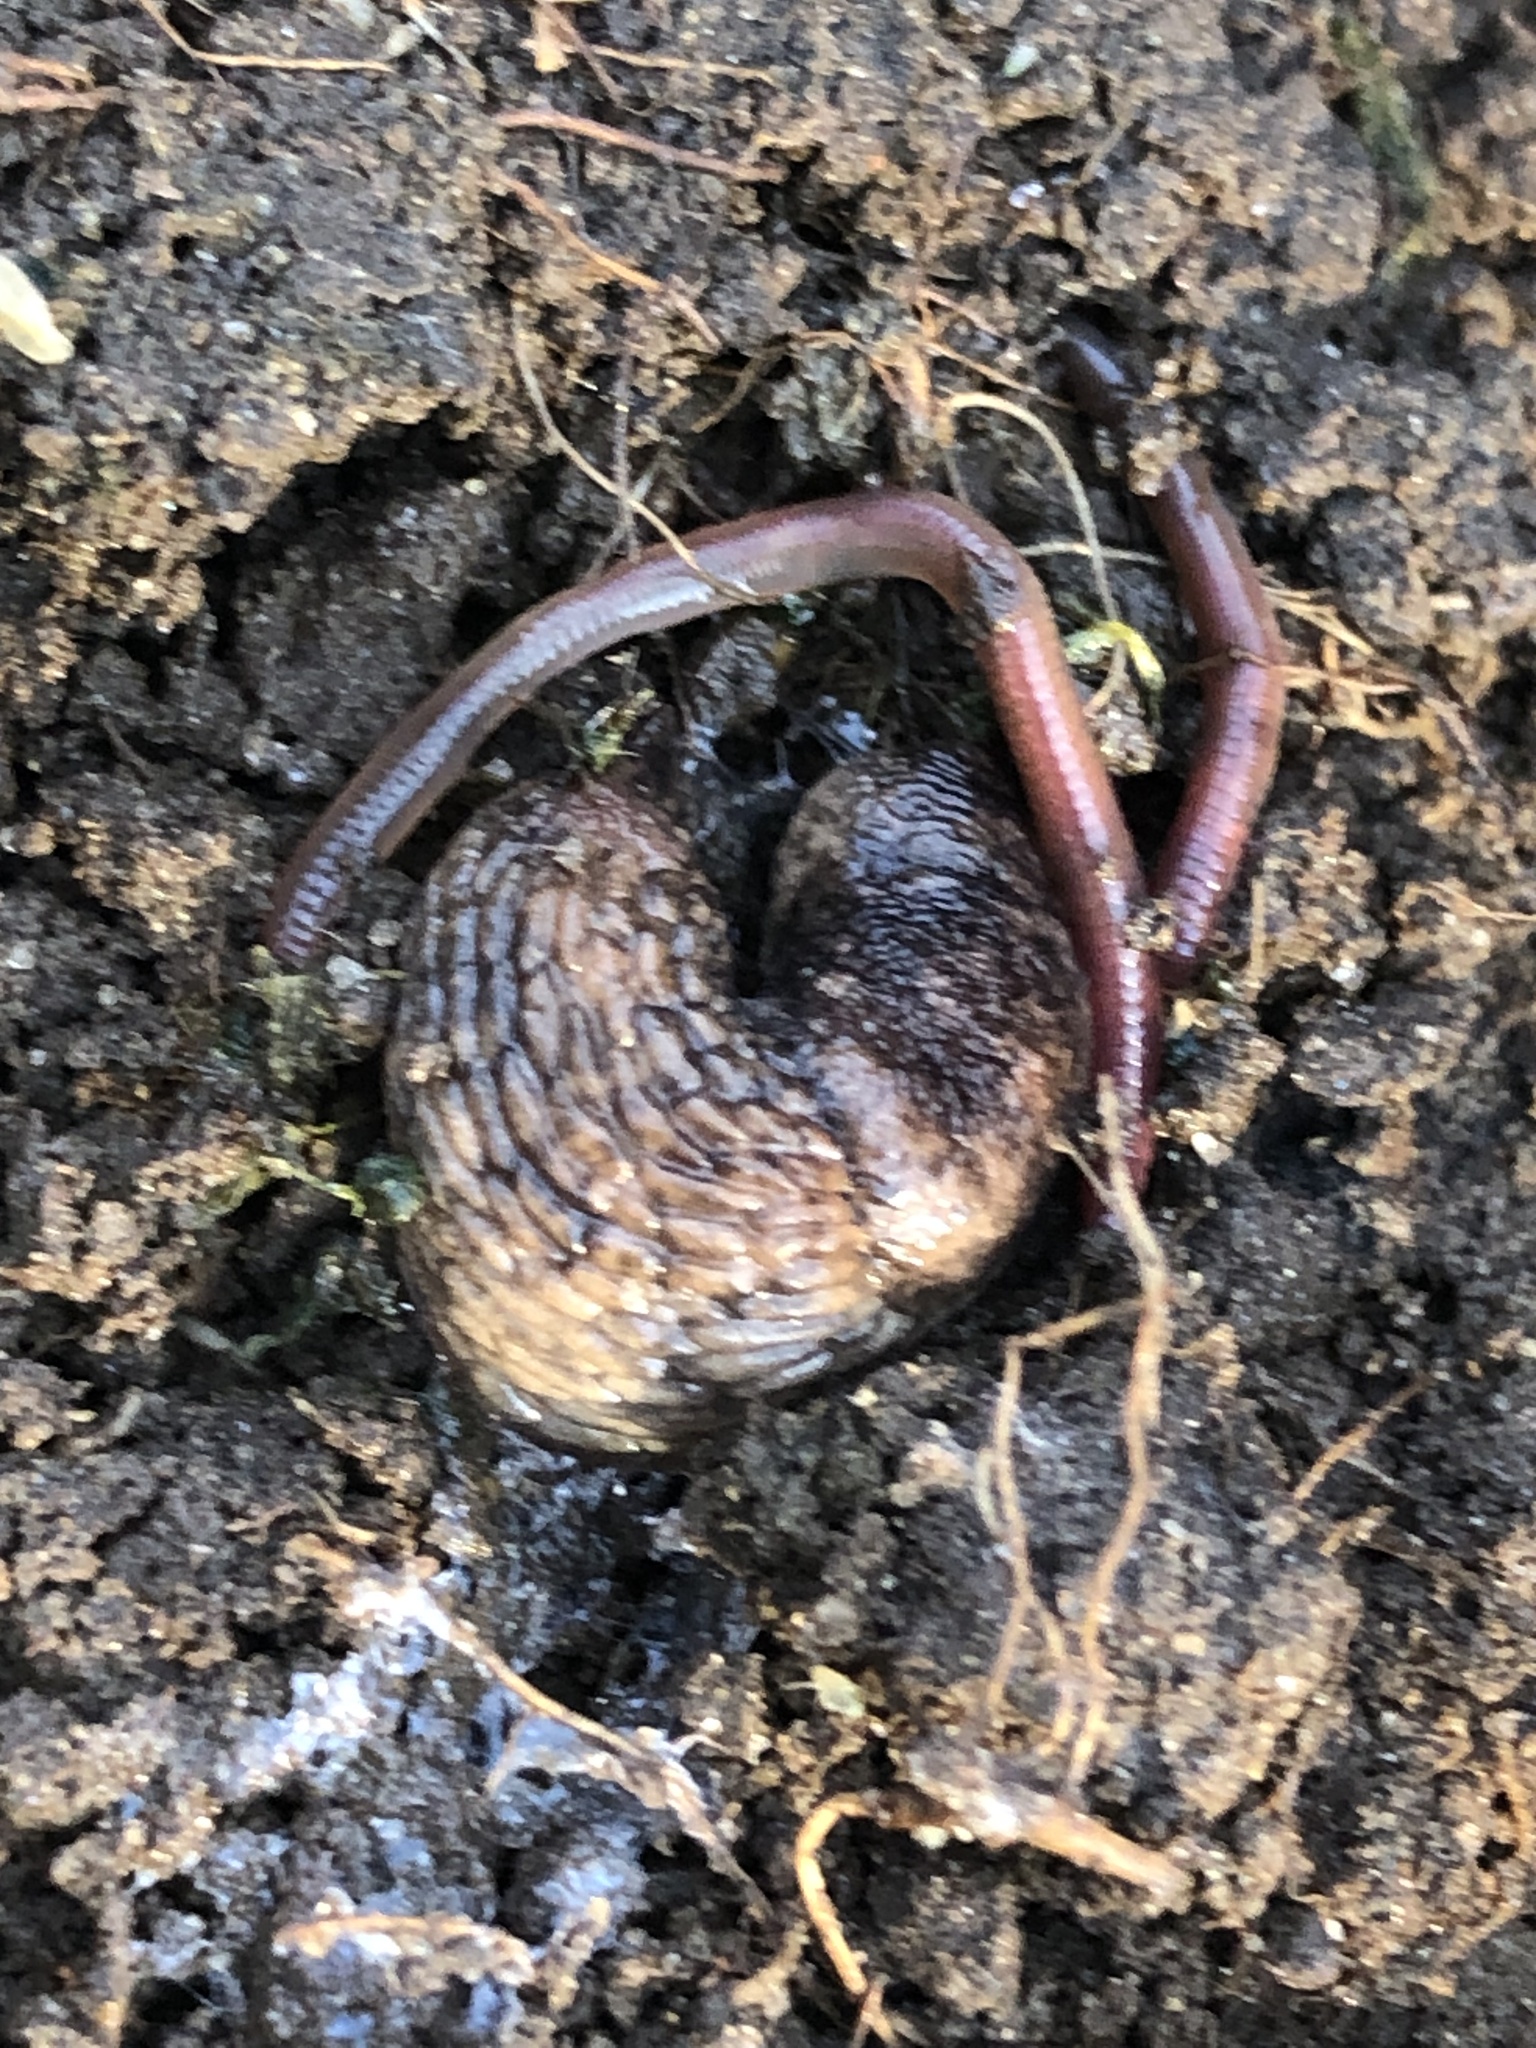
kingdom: Animalia
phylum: Mollusca
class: Gastropoda
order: Stylommatophora
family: Agriolimacidae
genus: Deroceras
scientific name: Deroceras reticulatum
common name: Gray field slug
